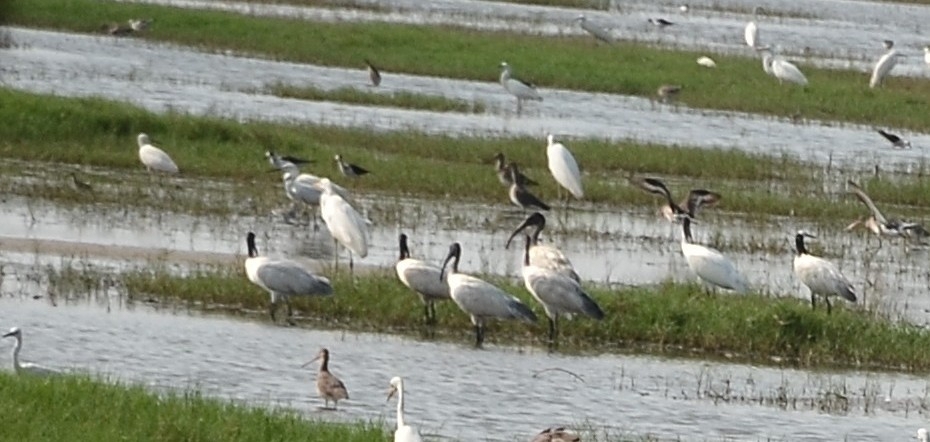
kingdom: Animalia
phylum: Chordata
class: Aves
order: Pelecaniformes
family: Threskiornithidae
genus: Threskiornis
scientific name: Threskiornis melanocephalus
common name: Black-headed ibis
